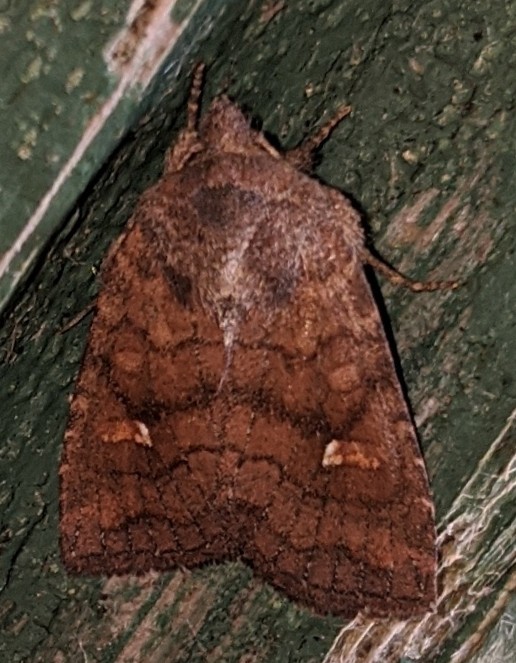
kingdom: Animalia
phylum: Arthropoda
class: Insecta
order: Lepidoptera
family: Noctuidae
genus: Tricholita
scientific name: Tricholita signata
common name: Signate quaker
